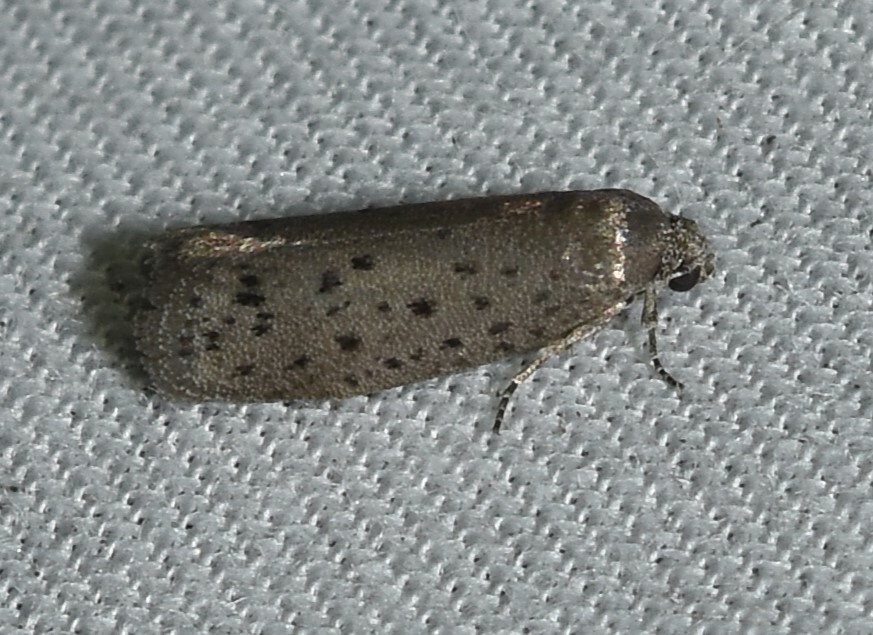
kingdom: Animalia
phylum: Arthropoda
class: Insecta
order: Lepidoptera
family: Galacticidae
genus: Homadaula
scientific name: Homadaula anisocentra
